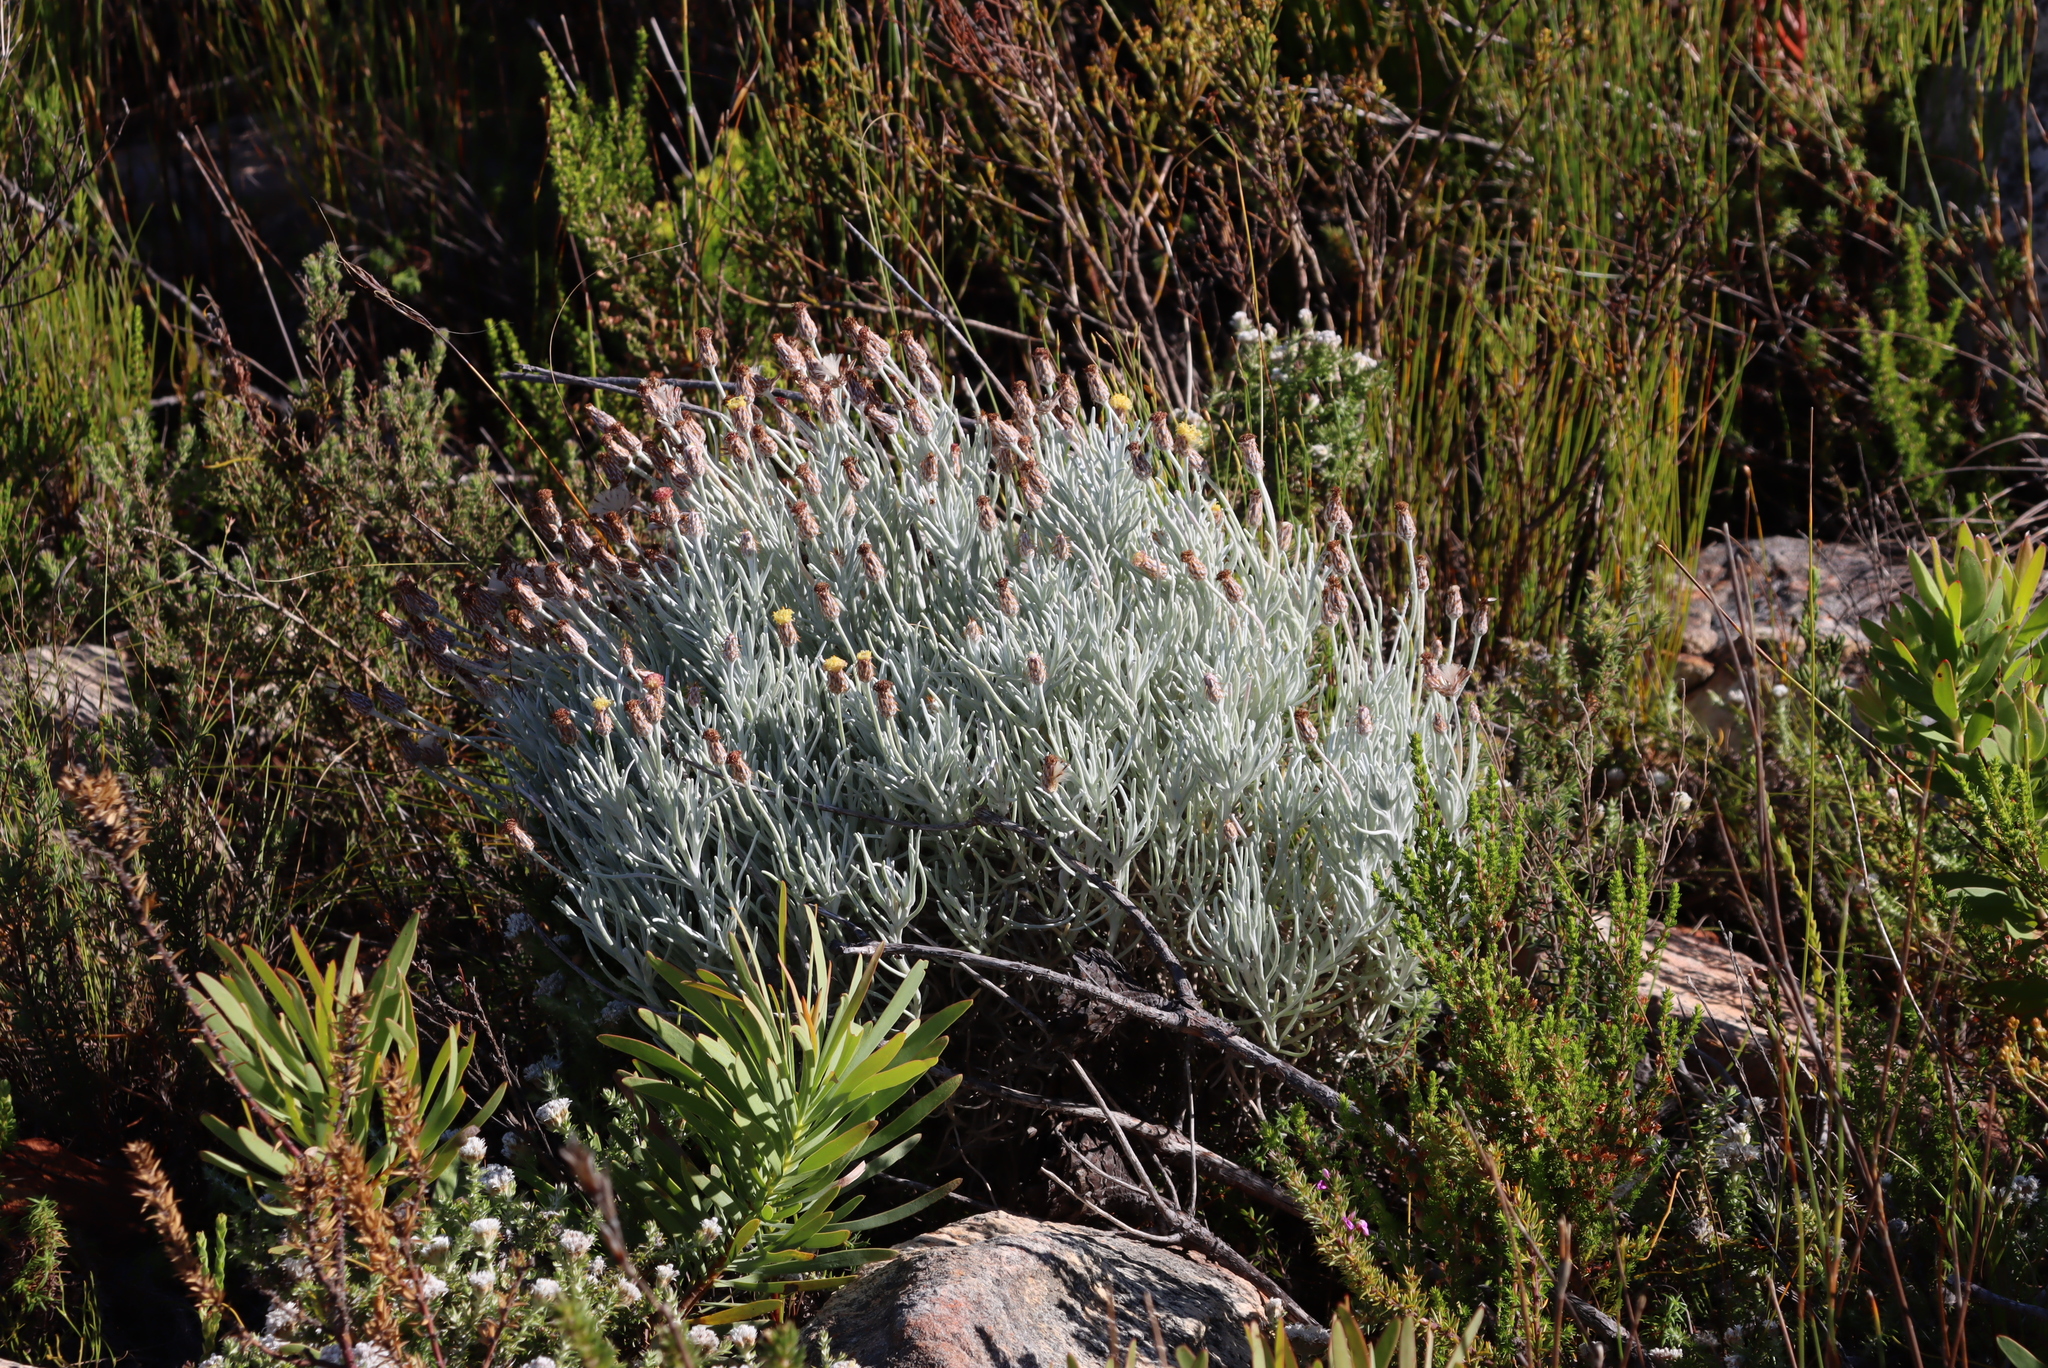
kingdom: Plantae
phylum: Tracheophyta
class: Magnoliopsida
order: Asterales
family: Asteraceae
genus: Syncarpha
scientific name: Syncarpha gnaphaloides
